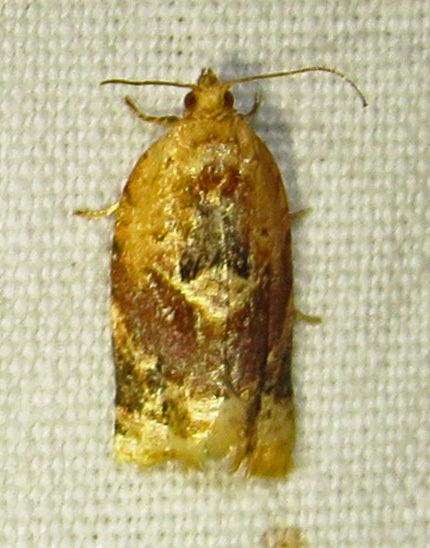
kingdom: Animalia
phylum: Arthropoda
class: Insecta
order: Lepidoptera
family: Tortricidae
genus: Argyrotaenia
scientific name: Argyrotaenia velutinana
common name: Red-banded leafroller moth
